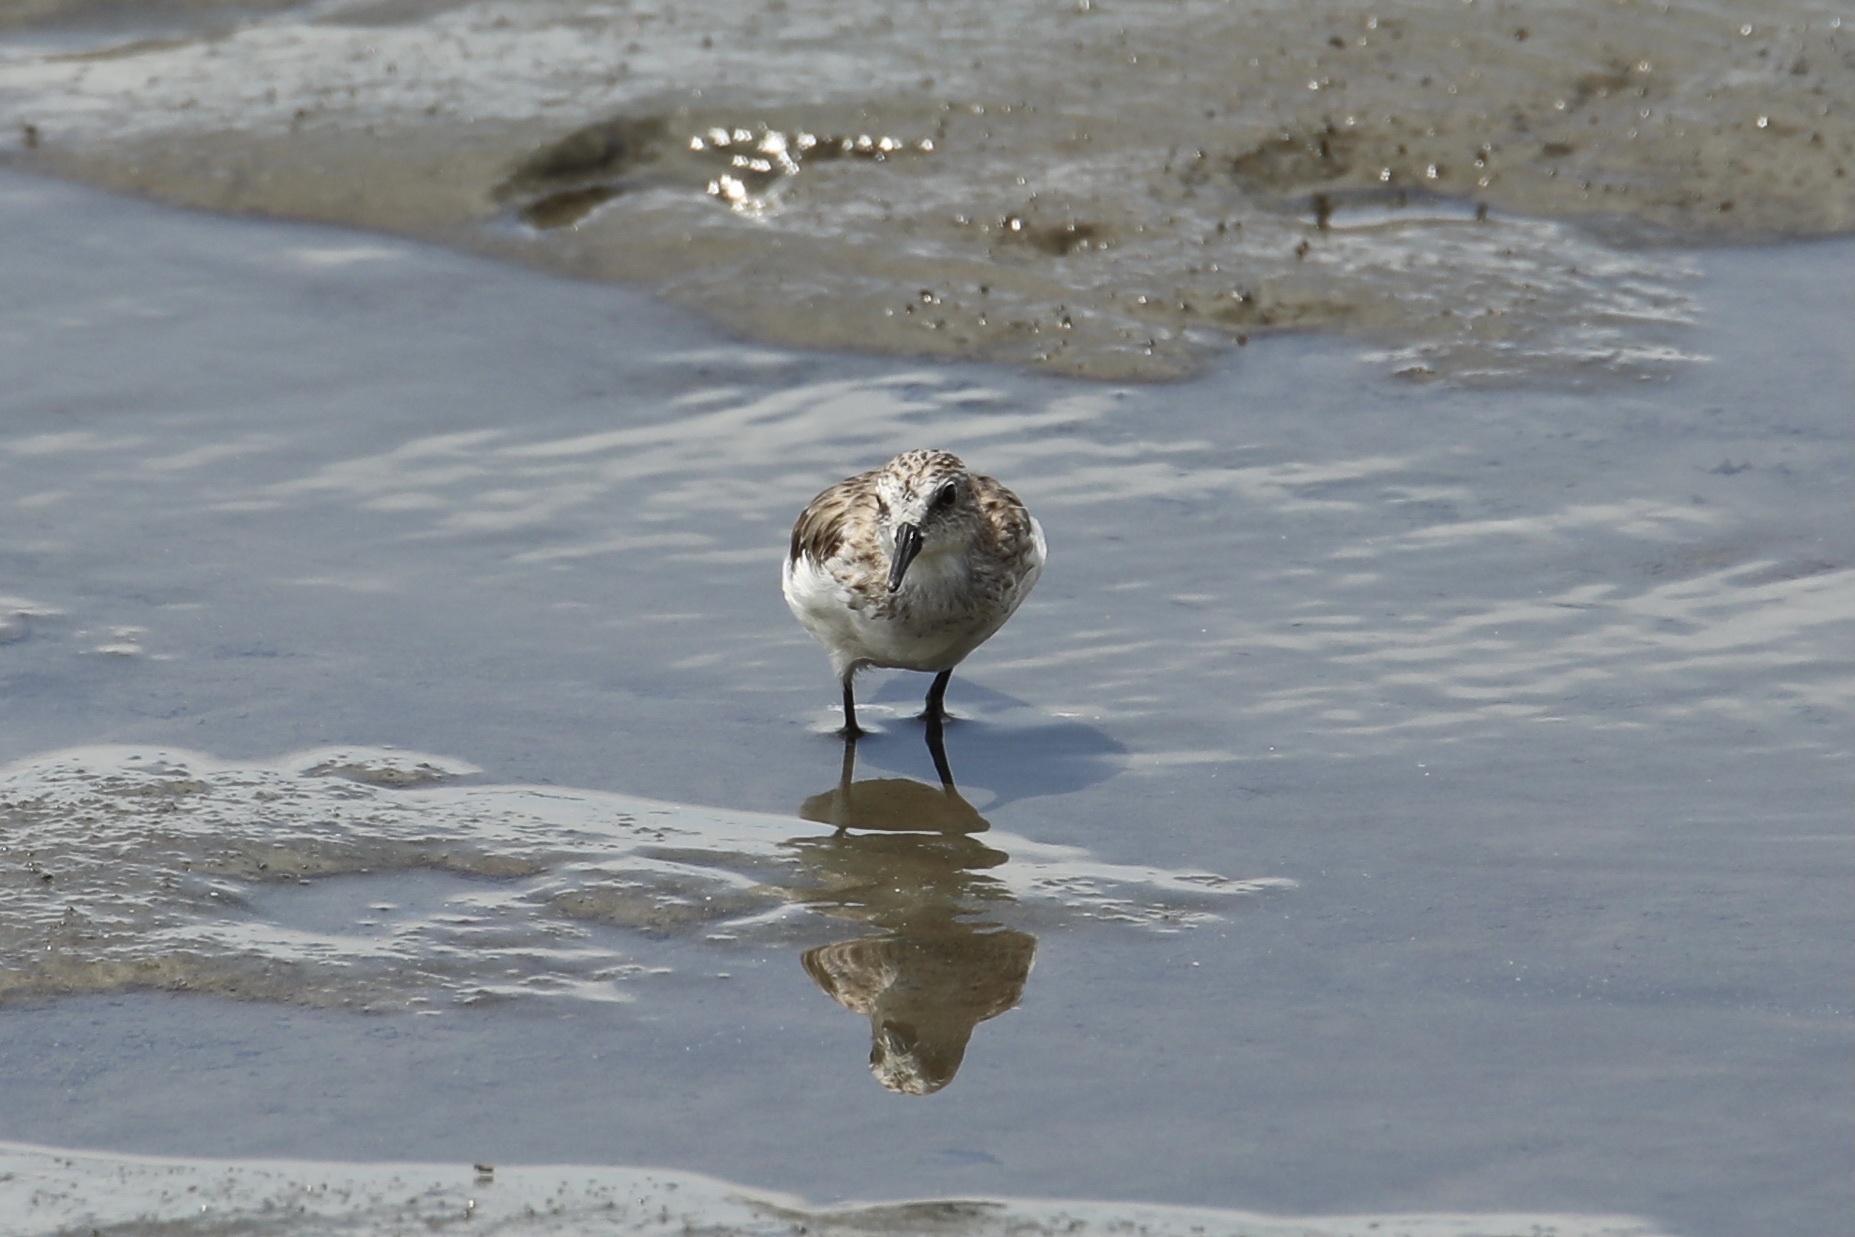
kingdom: Animalia
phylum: Chordata
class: Aves
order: Charadriiformes
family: Scolopacidae
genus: Calidris
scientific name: Calidris pusilla
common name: Semipalmated sandpiper
